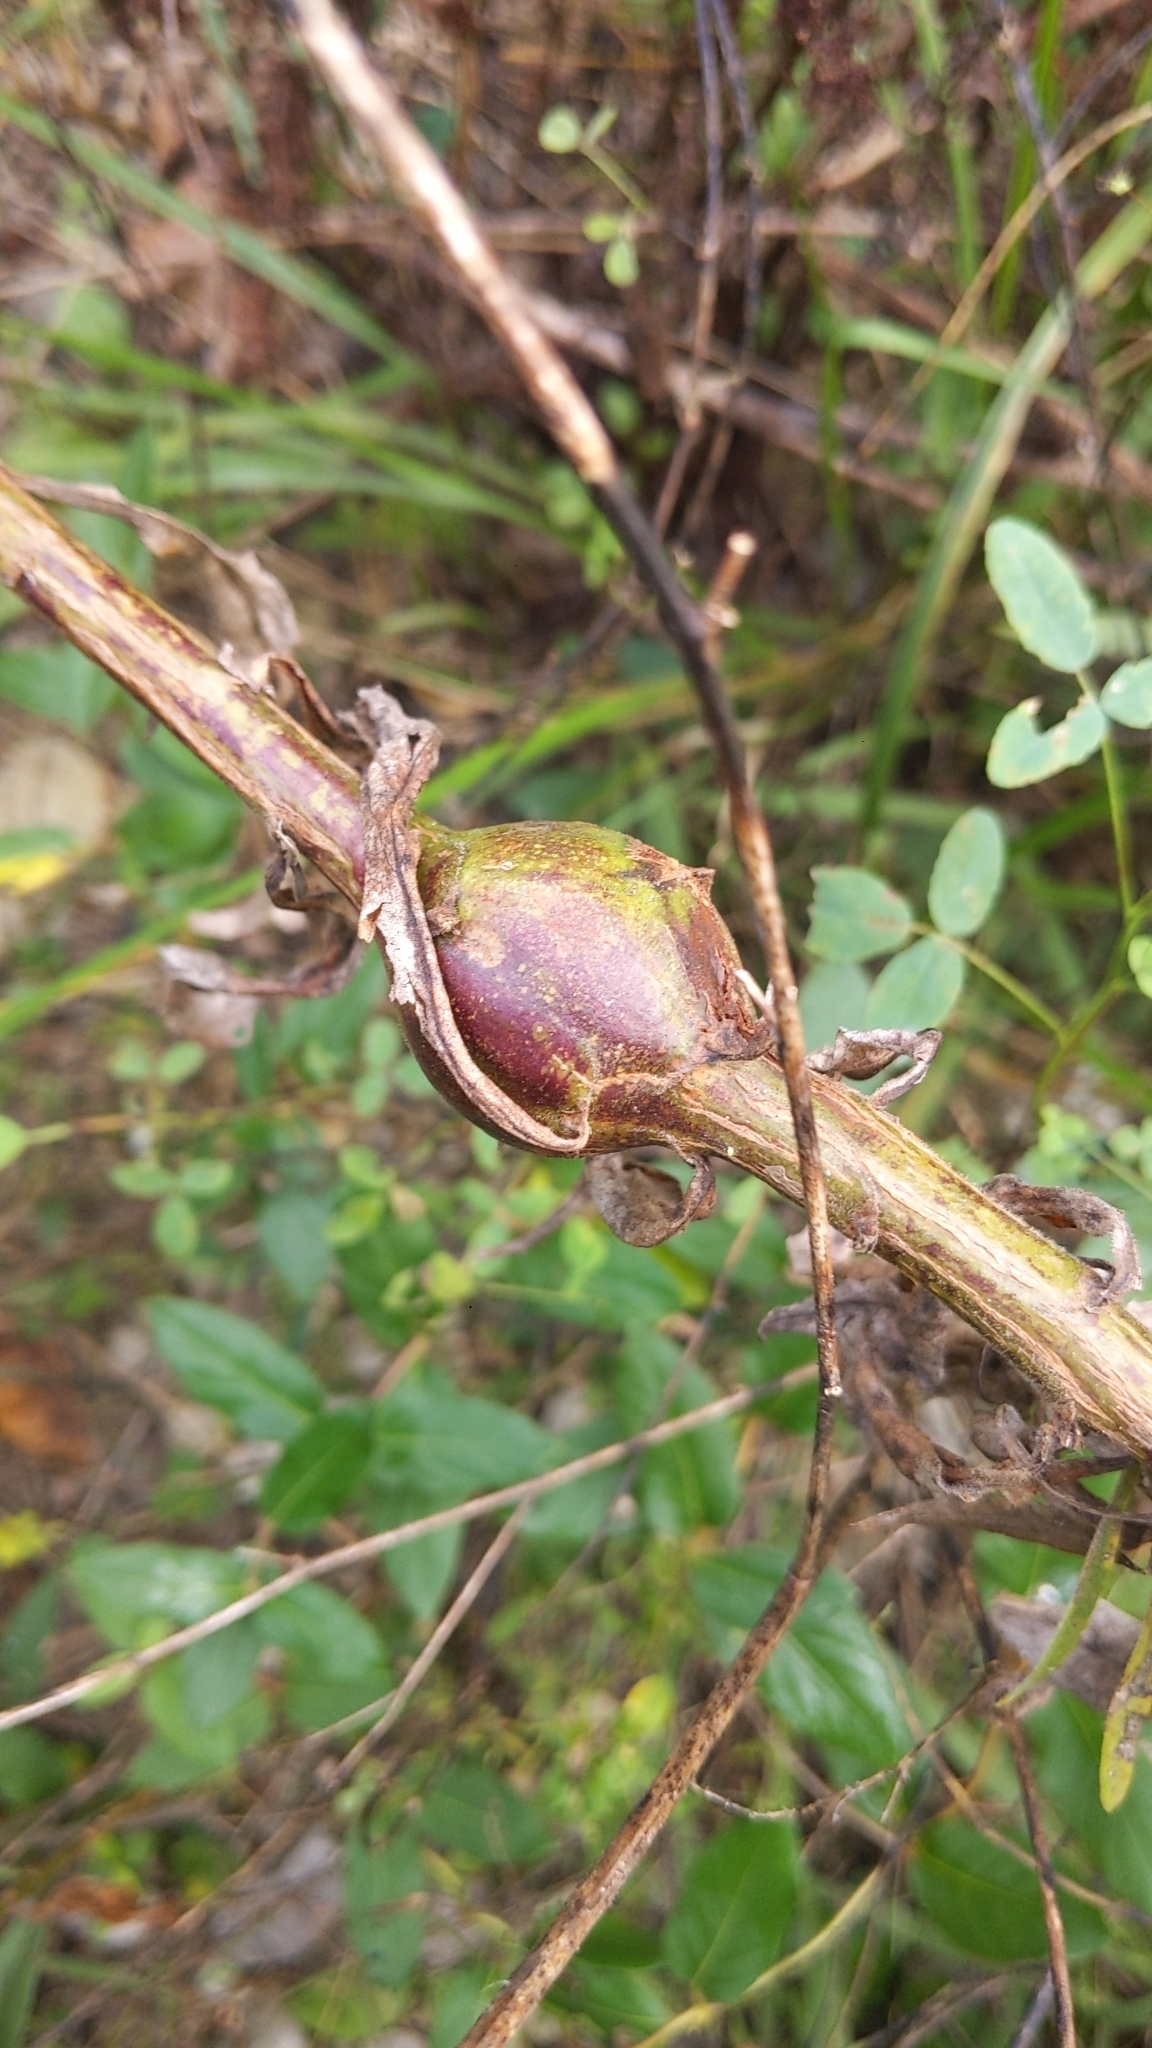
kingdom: Animalia
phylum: Arthropoda
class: Insecta
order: Diptera
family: Tephritidae
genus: Eurosta
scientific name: Eurosta solidaginis
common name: Goldenrod gall fly
